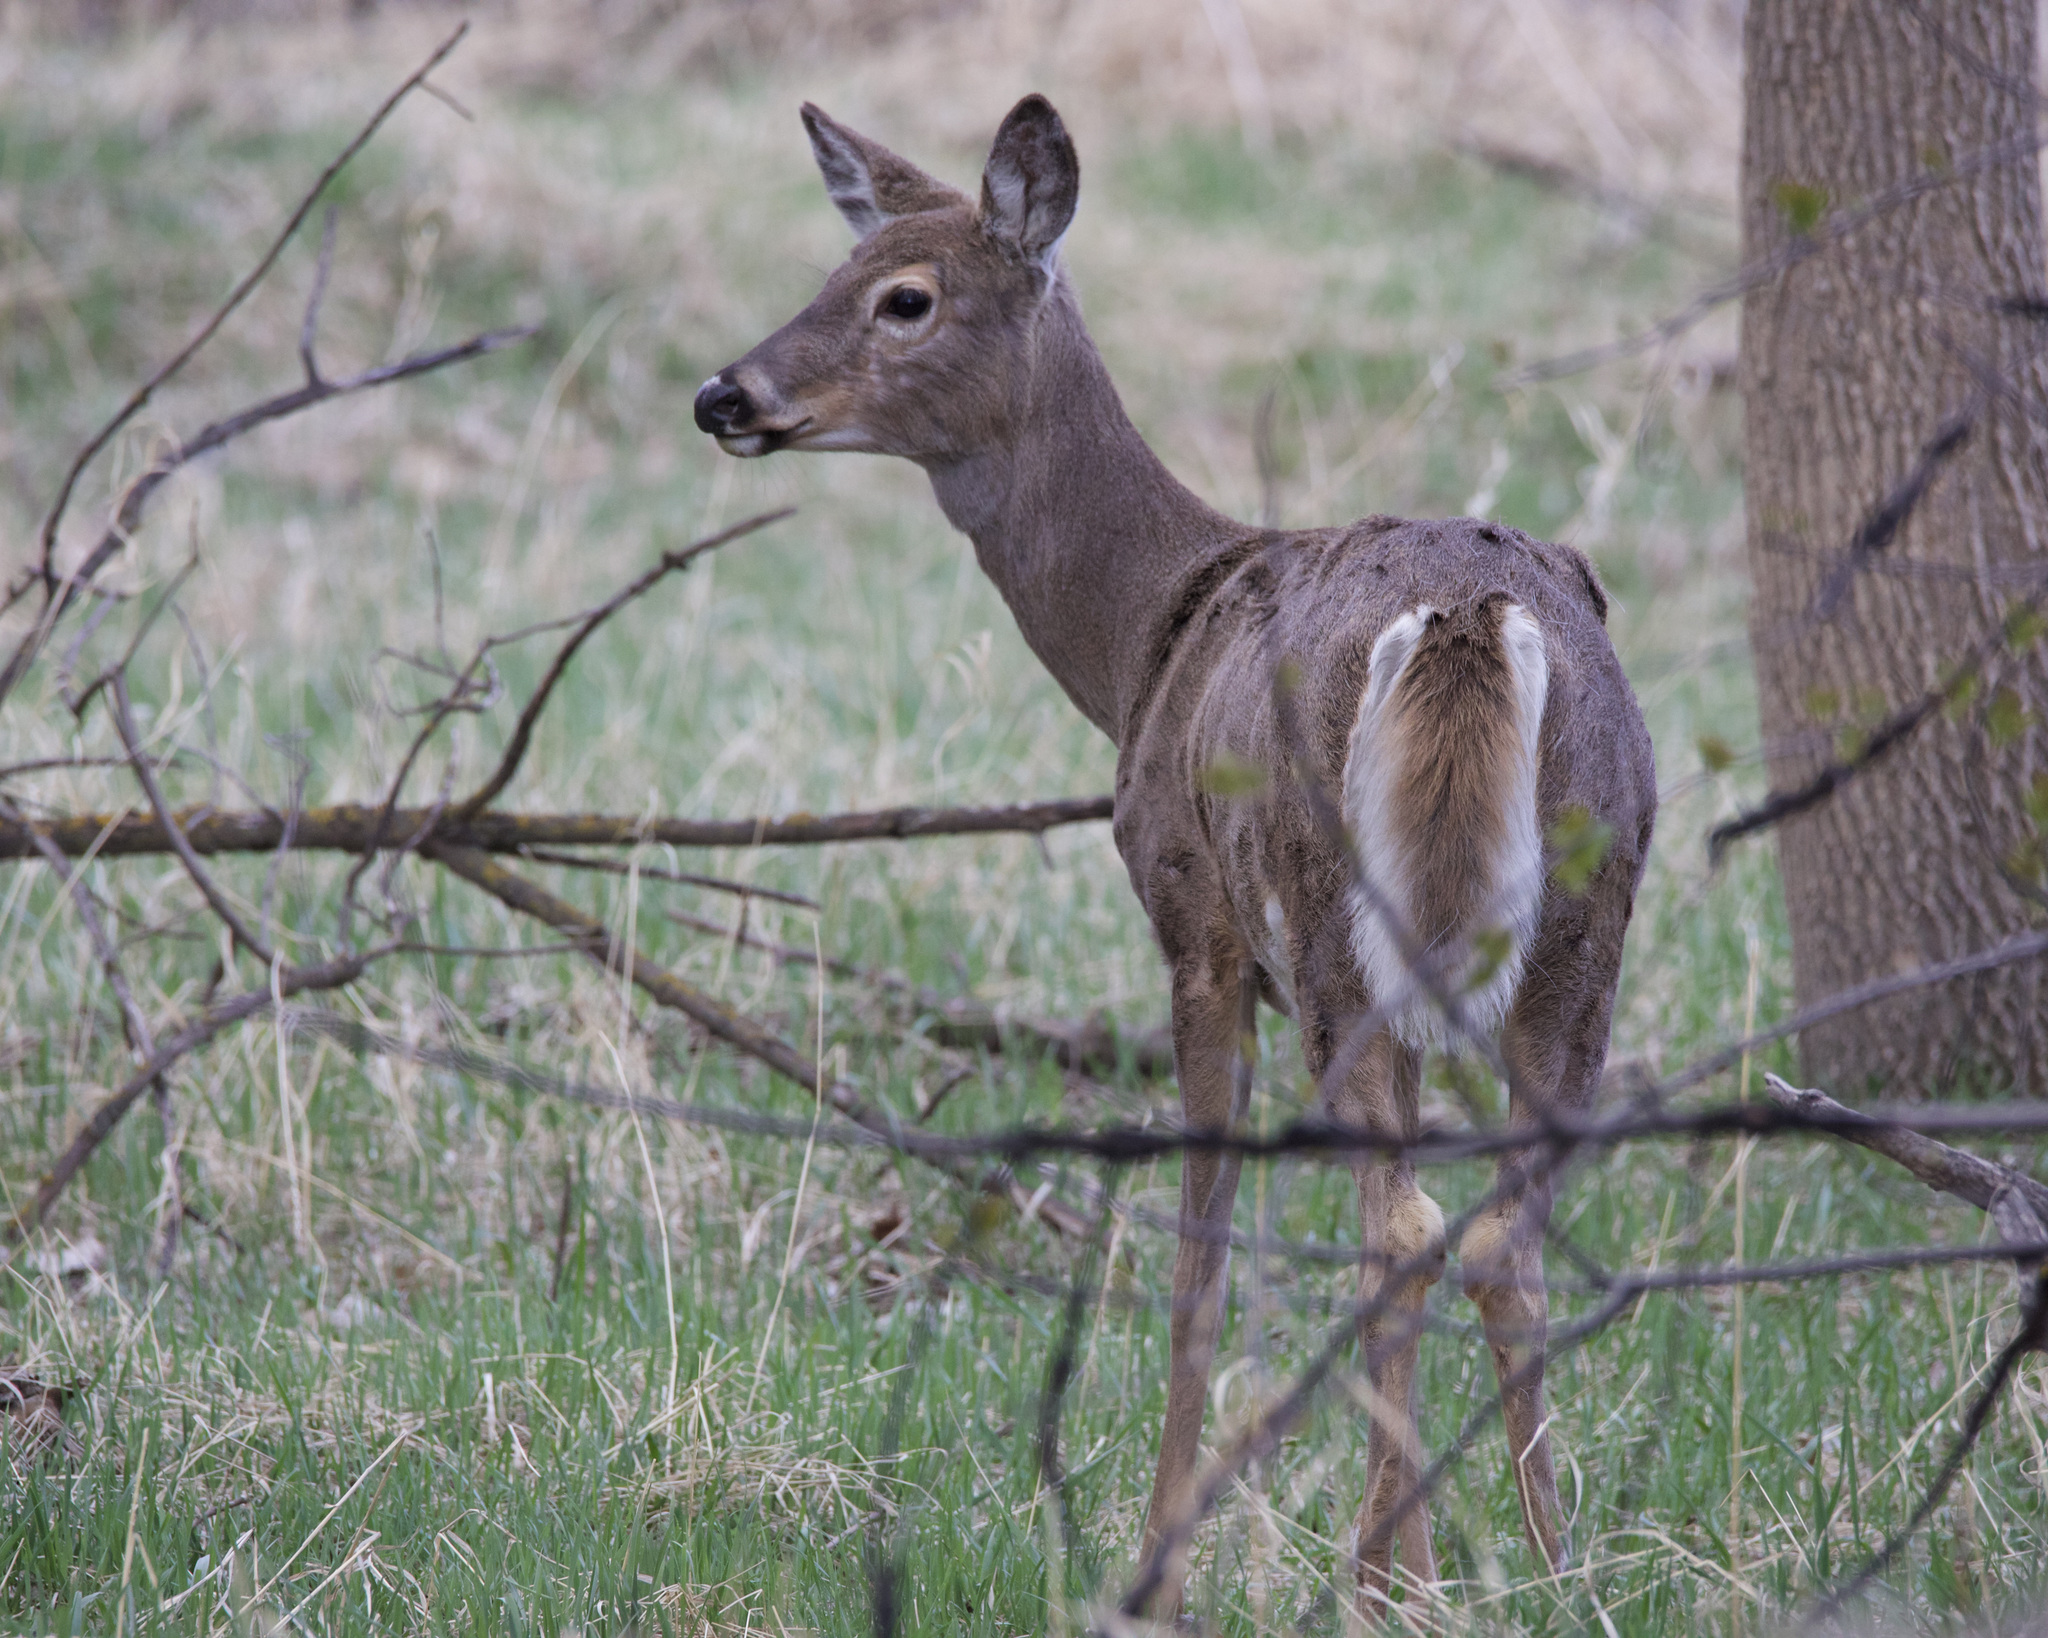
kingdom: Animalia
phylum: Chordata
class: Mammalia
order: Artiodactyla
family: Cervidae
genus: Odocoileus
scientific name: Odocoileus virginianus
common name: White-tailed deer
